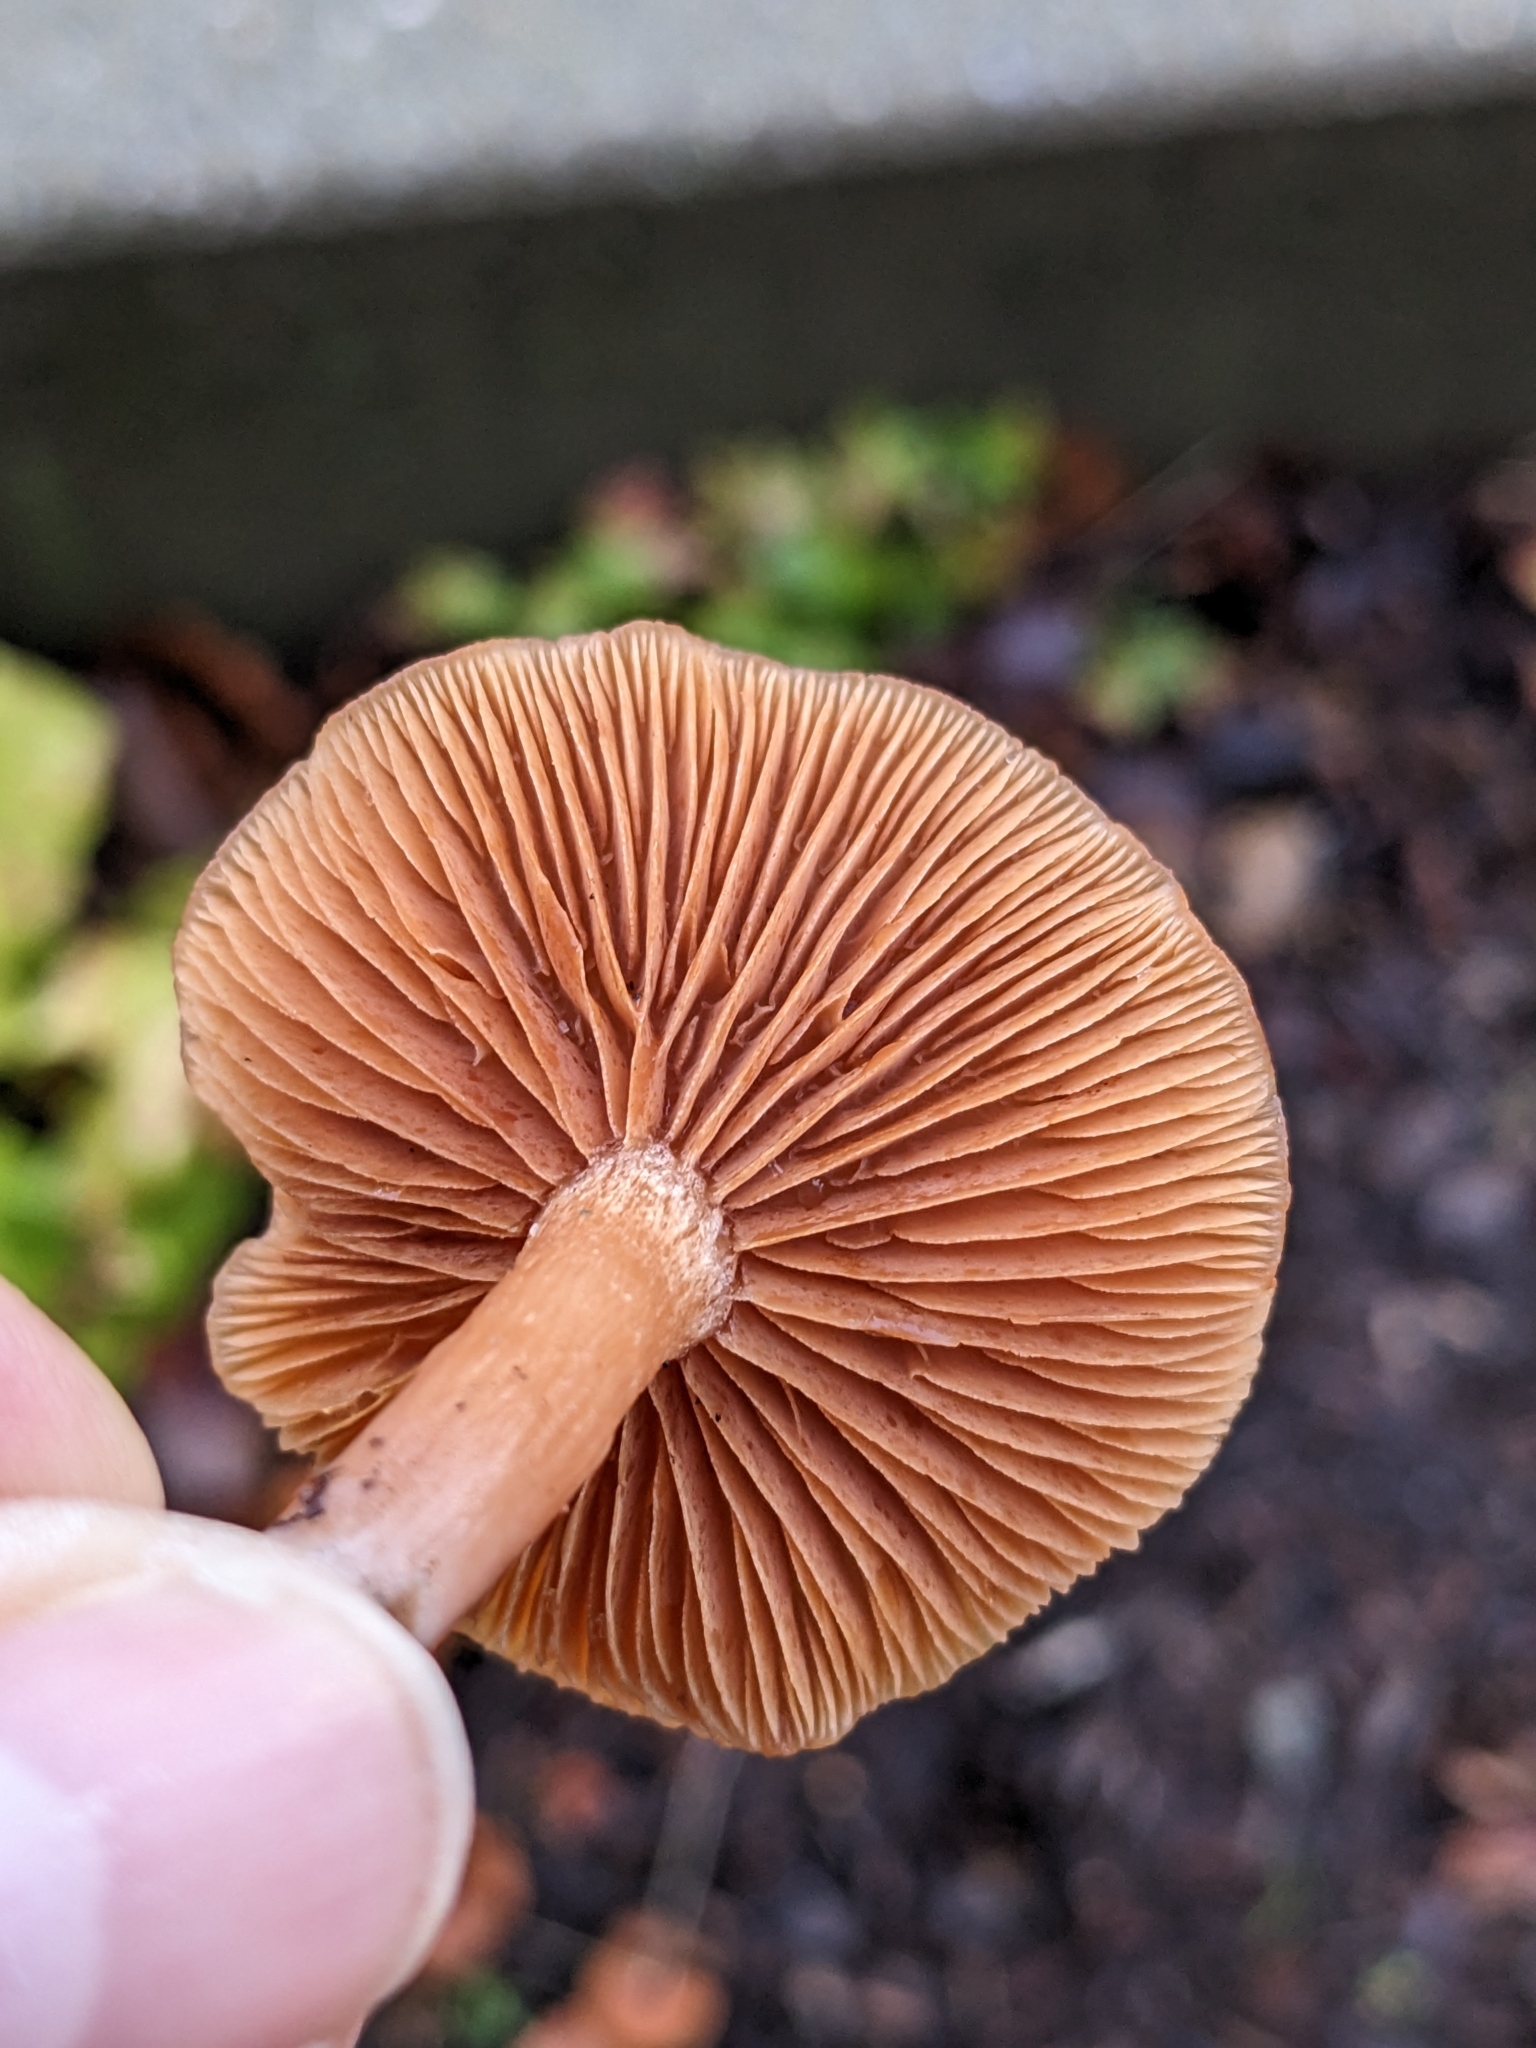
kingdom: Fungi
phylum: Basidiomycota
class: Agaricomycetes
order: Agaricales
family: Tubariaceae
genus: Tubaria
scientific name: Tubaria furfuracea
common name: Scurfy twiglet
